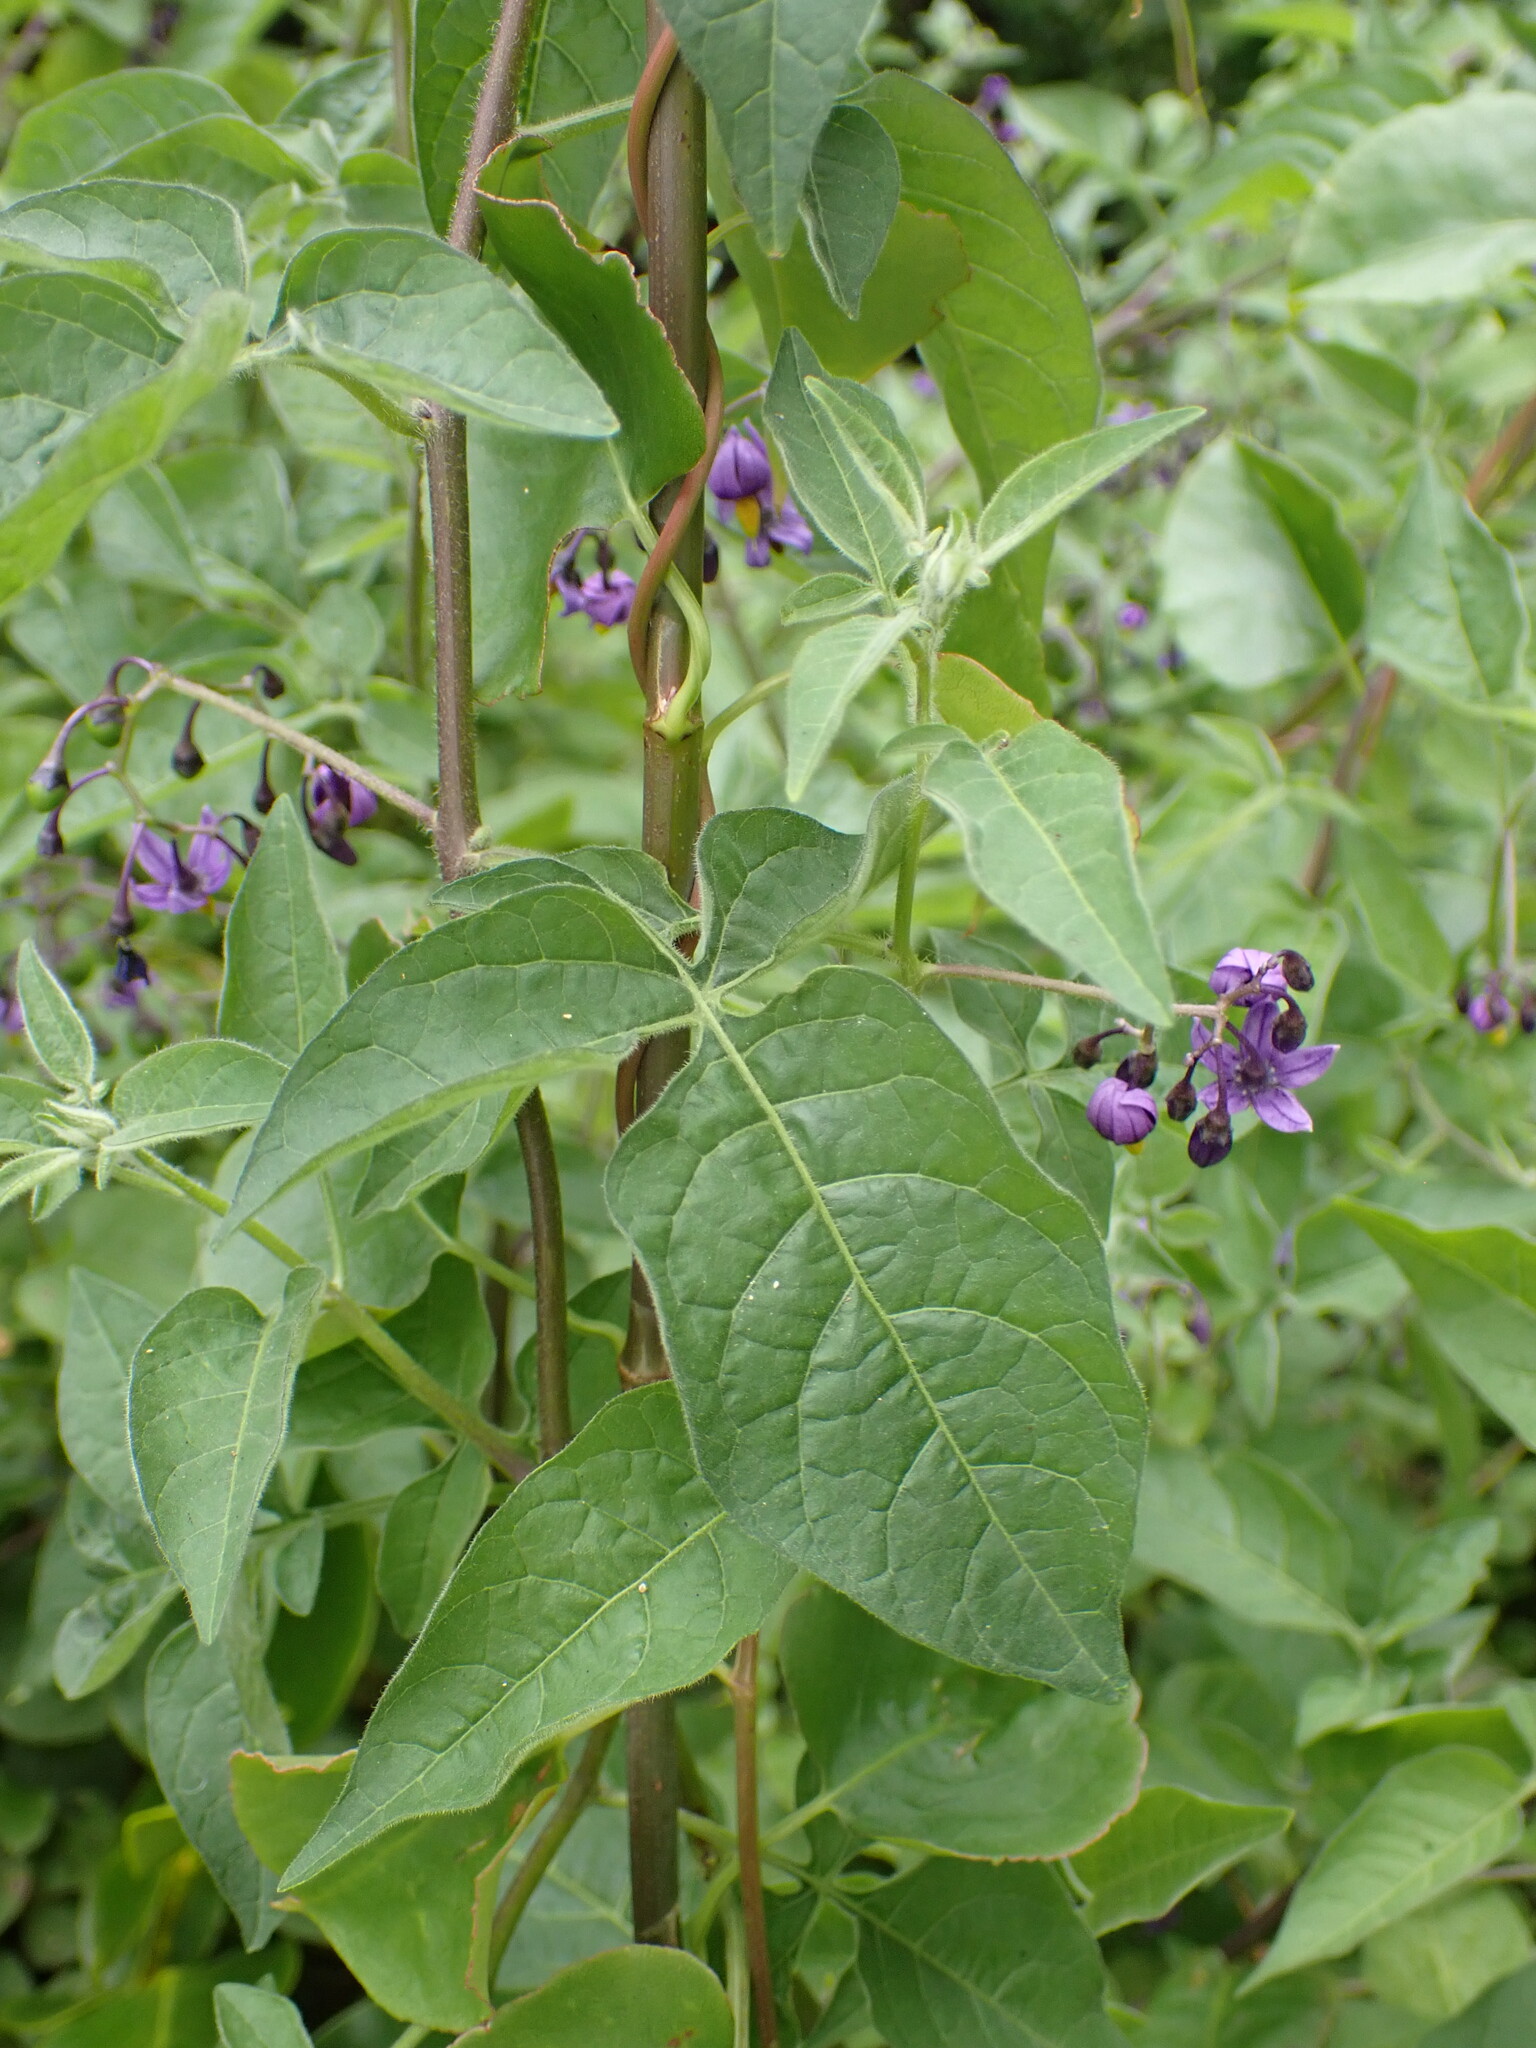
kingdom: Plantae
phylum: Tracheophyta
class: Magnoliopsida
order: Solanales
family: Solanaceae
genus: Solanum
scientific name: Solanum dulcamara
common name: Climbing nightshade
